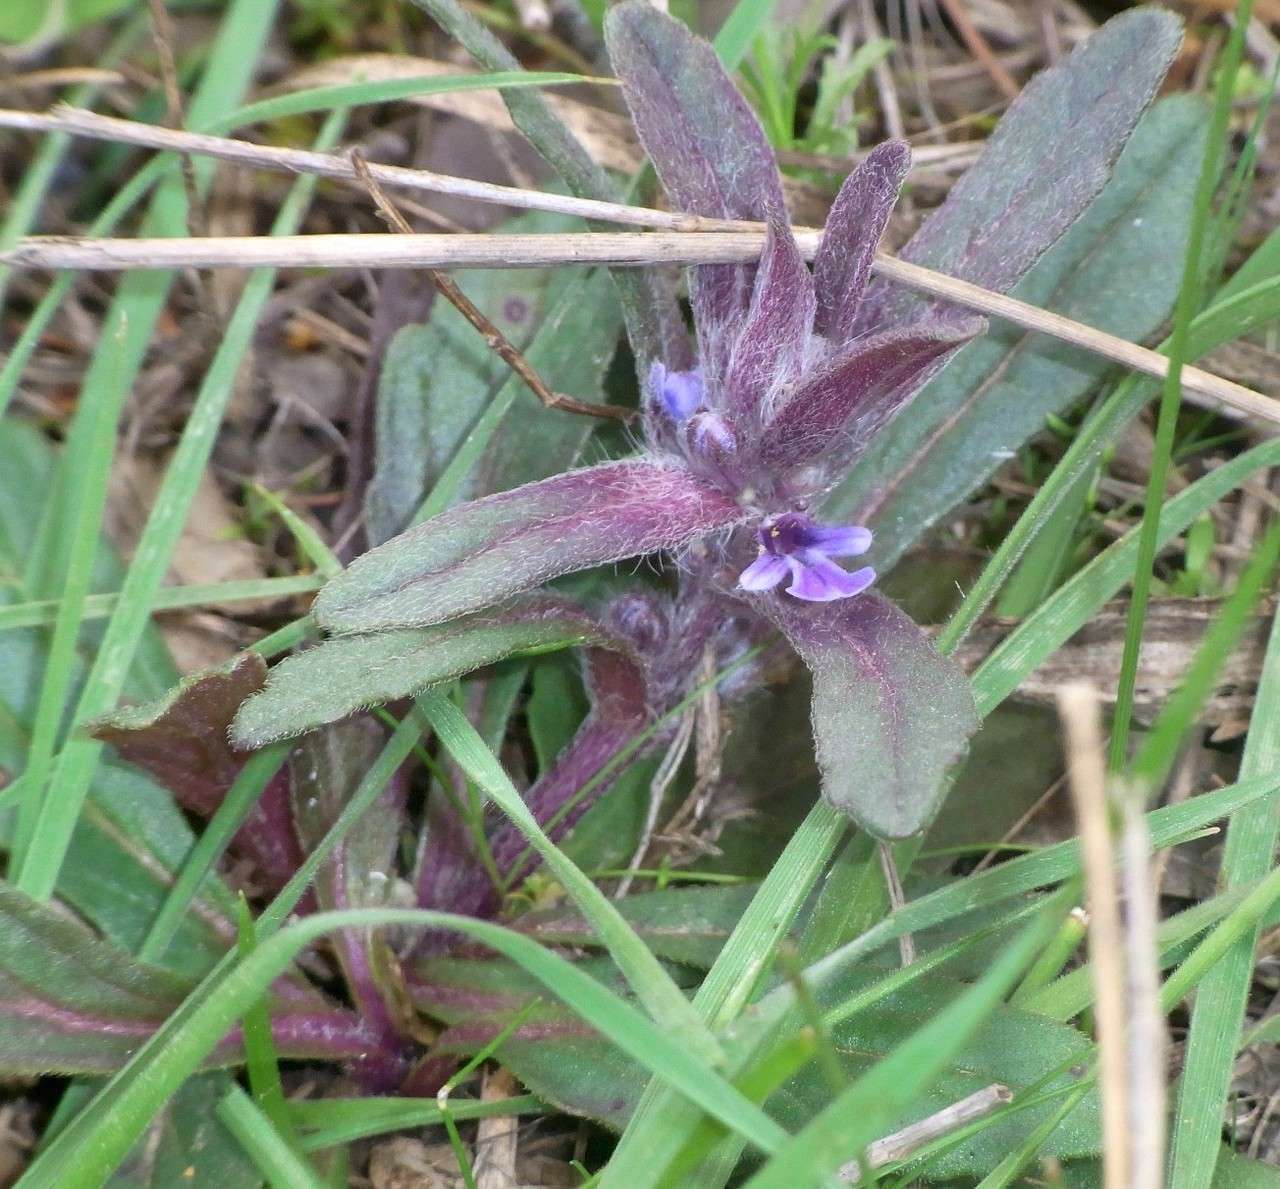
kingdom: Plantae
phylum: Tracheophyta
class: Magnoliopsida
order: Lamiales
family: Lamiaceae
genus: Ajuga
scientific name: Ajuga australis
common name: Australian bugle
